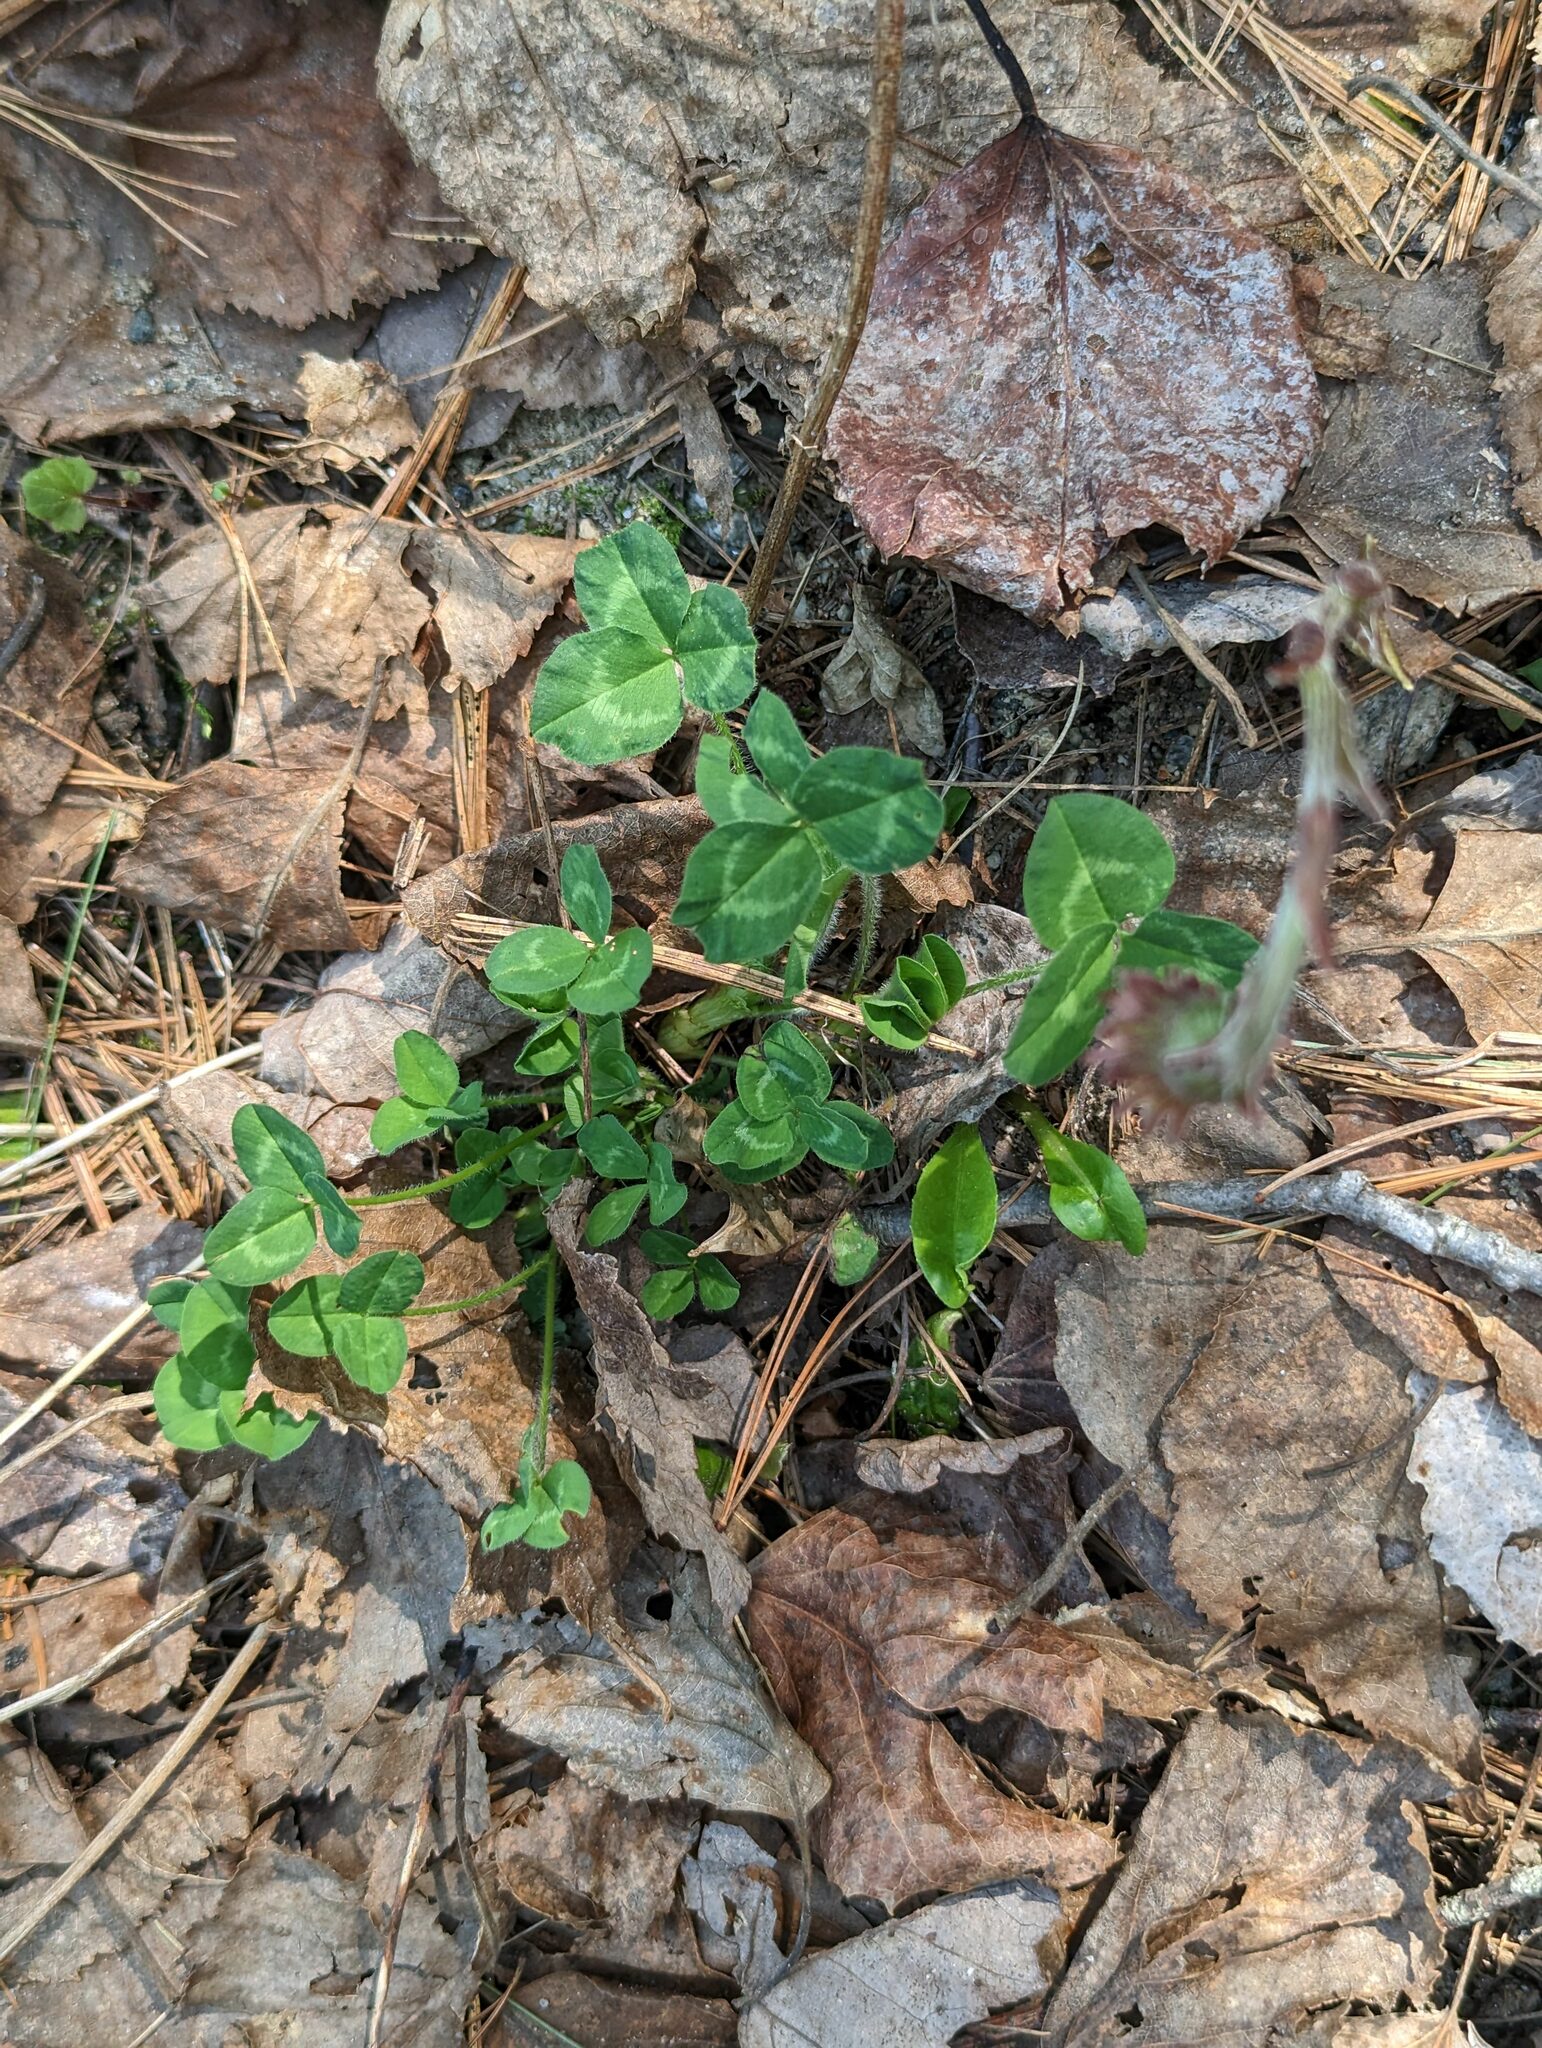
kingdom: Plantae
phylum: Tracheophyta
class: Magnoliopsida
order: Fabales
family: Fabaceae
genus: Trifolium
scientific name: Trifolium pratense
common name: Red clover
